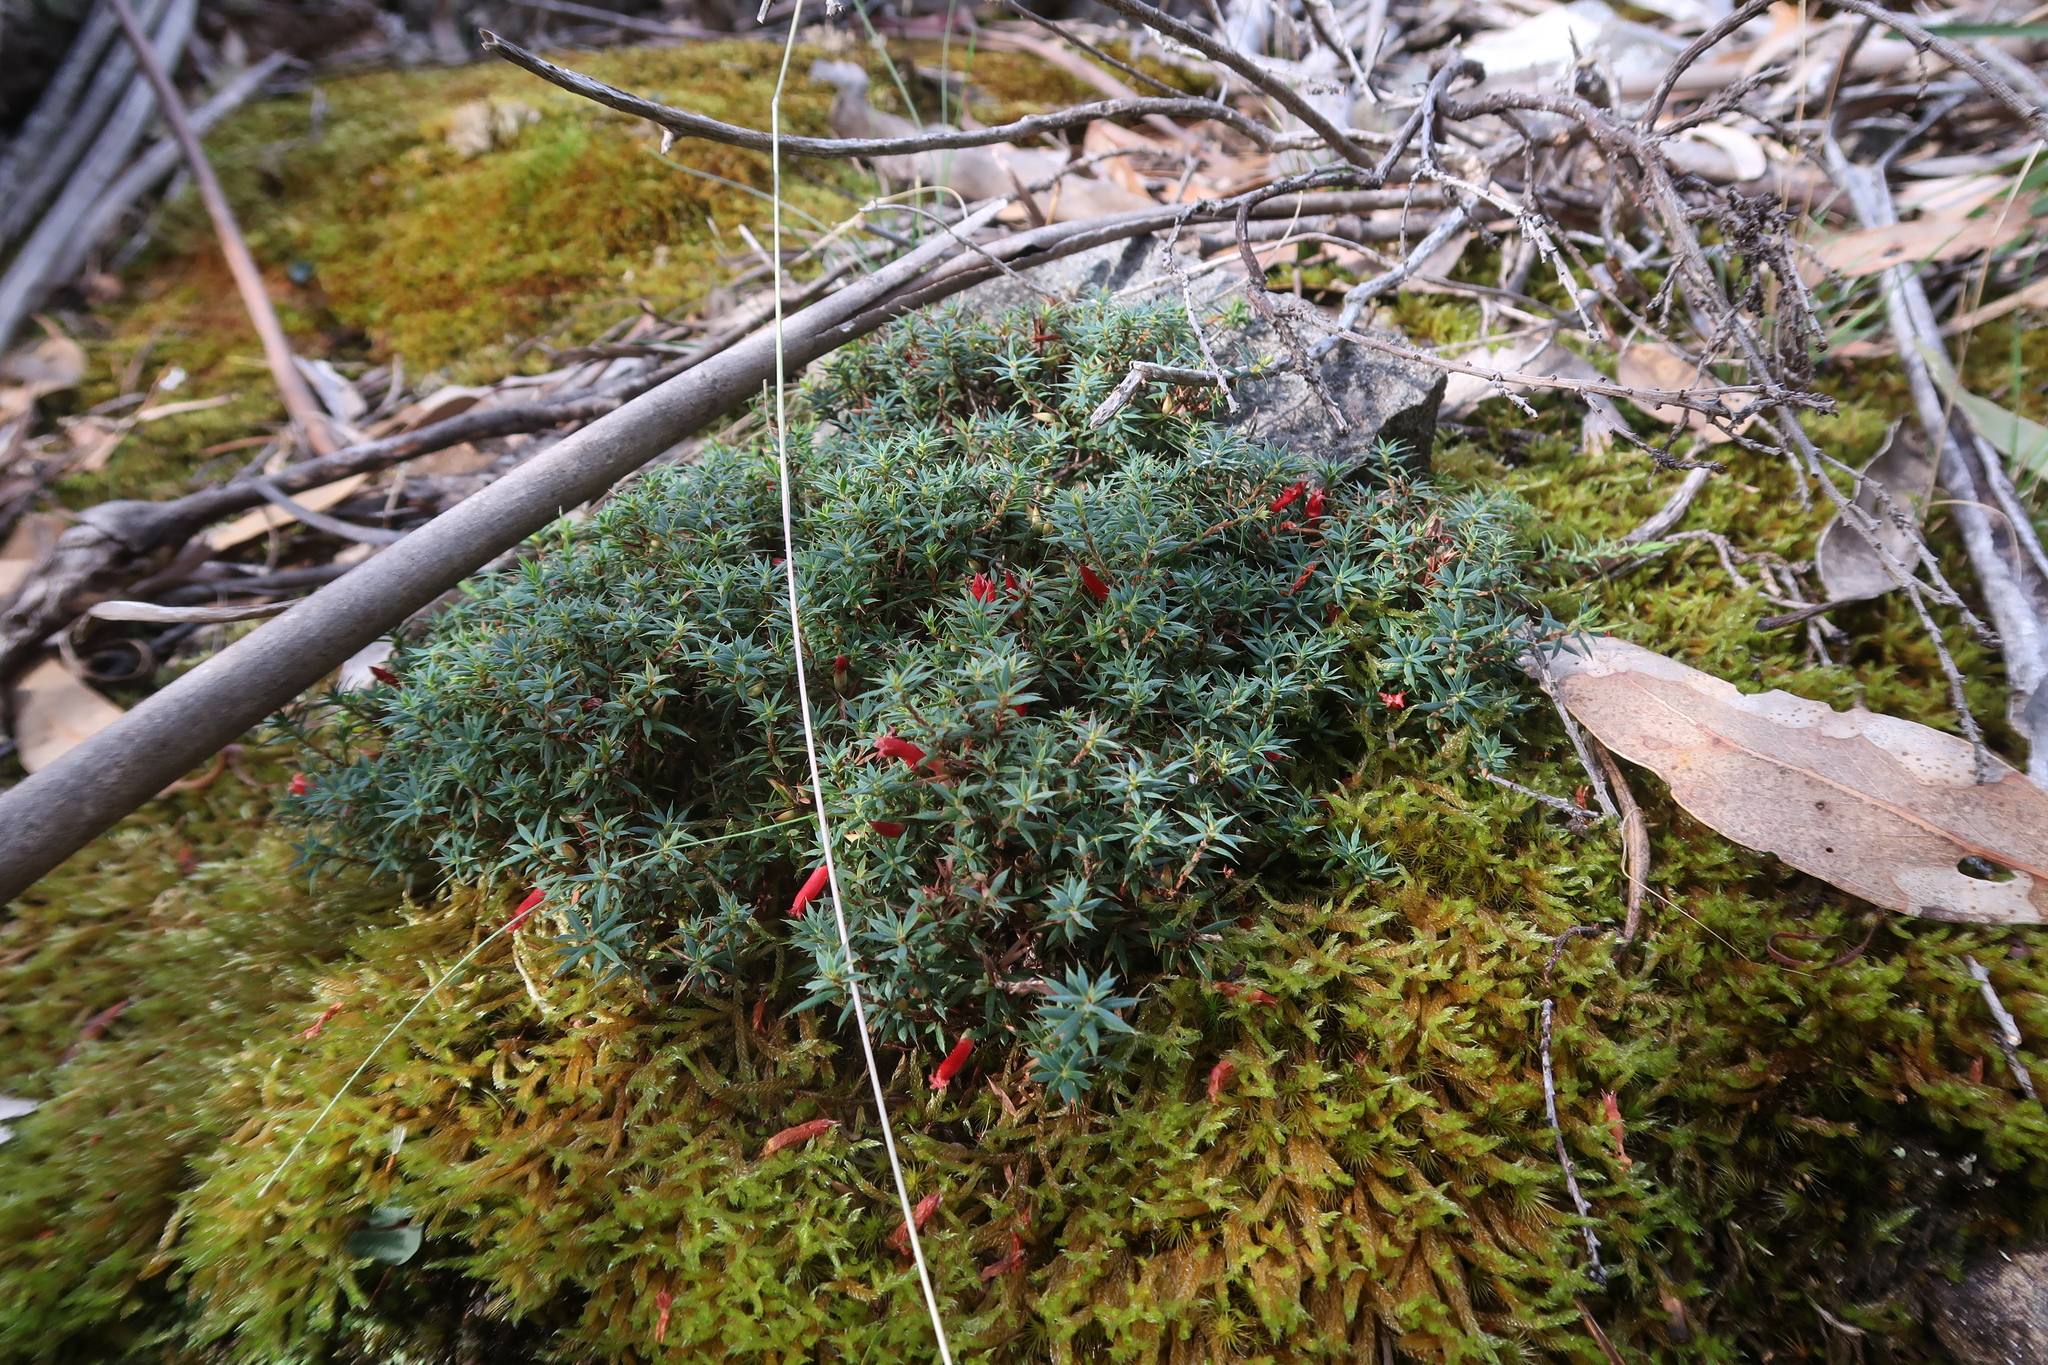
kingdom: Plantae
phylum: Tracheophyta
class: Magnoliopsida
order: Ericales
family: Ericaceae
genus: Styphelia
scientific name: Styphelia humifusa
